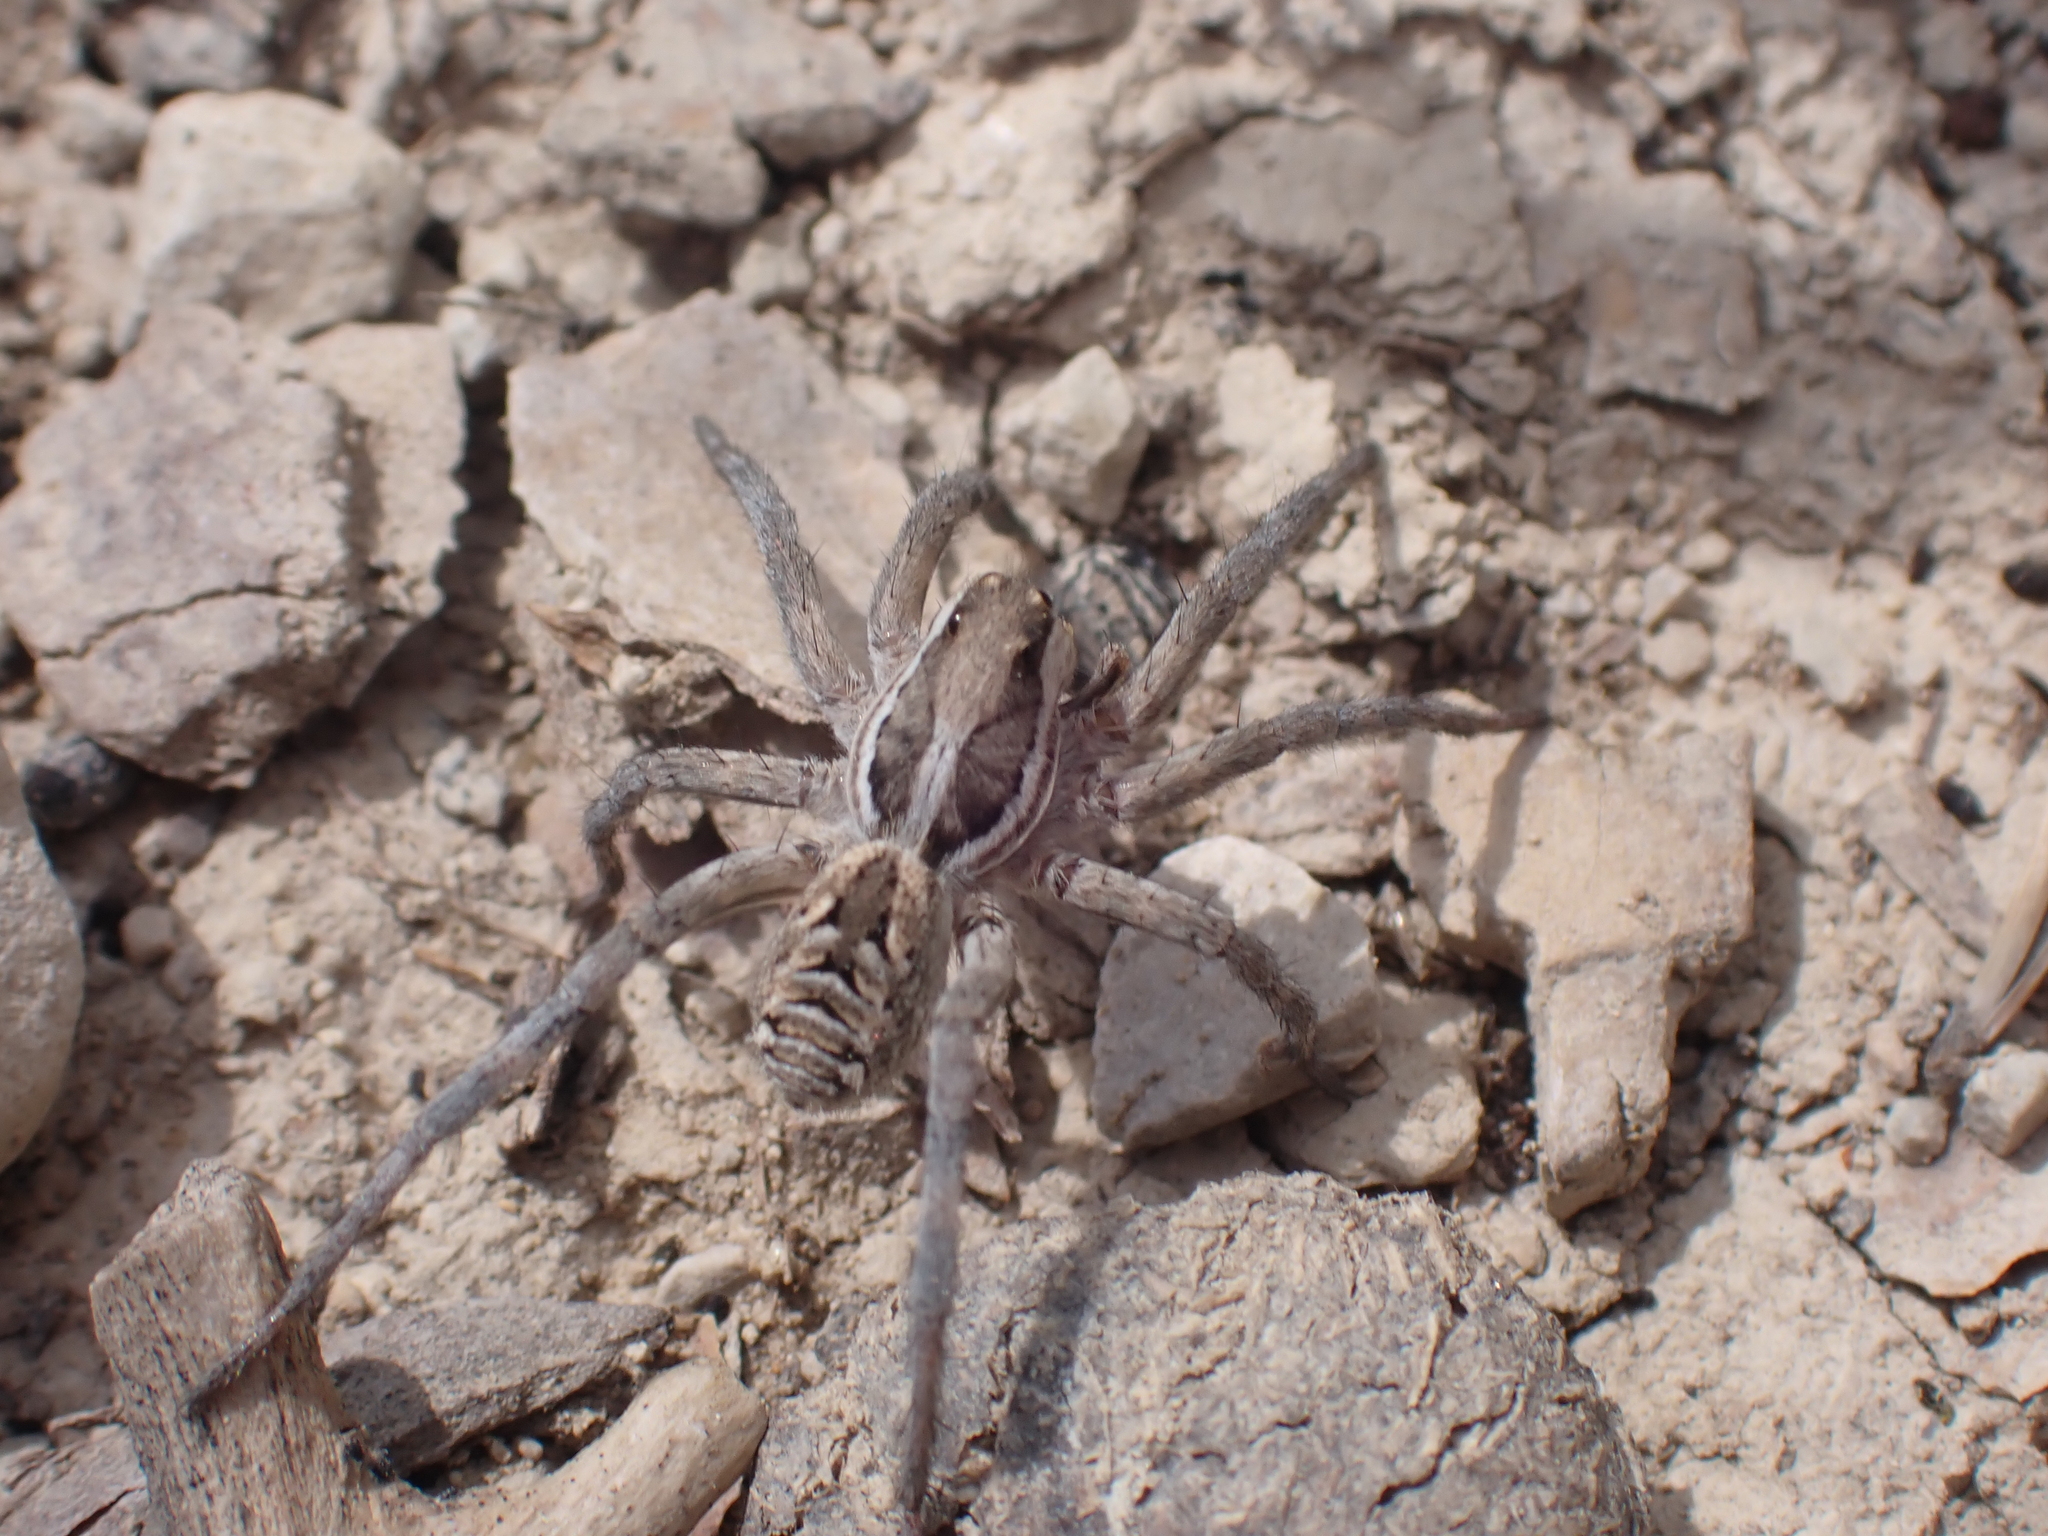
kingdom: Animalia
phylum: Arthropoda
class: Arachnida
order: Araneae
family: Lycosidae
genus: Lycosa
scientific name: Lycosa tarantula
